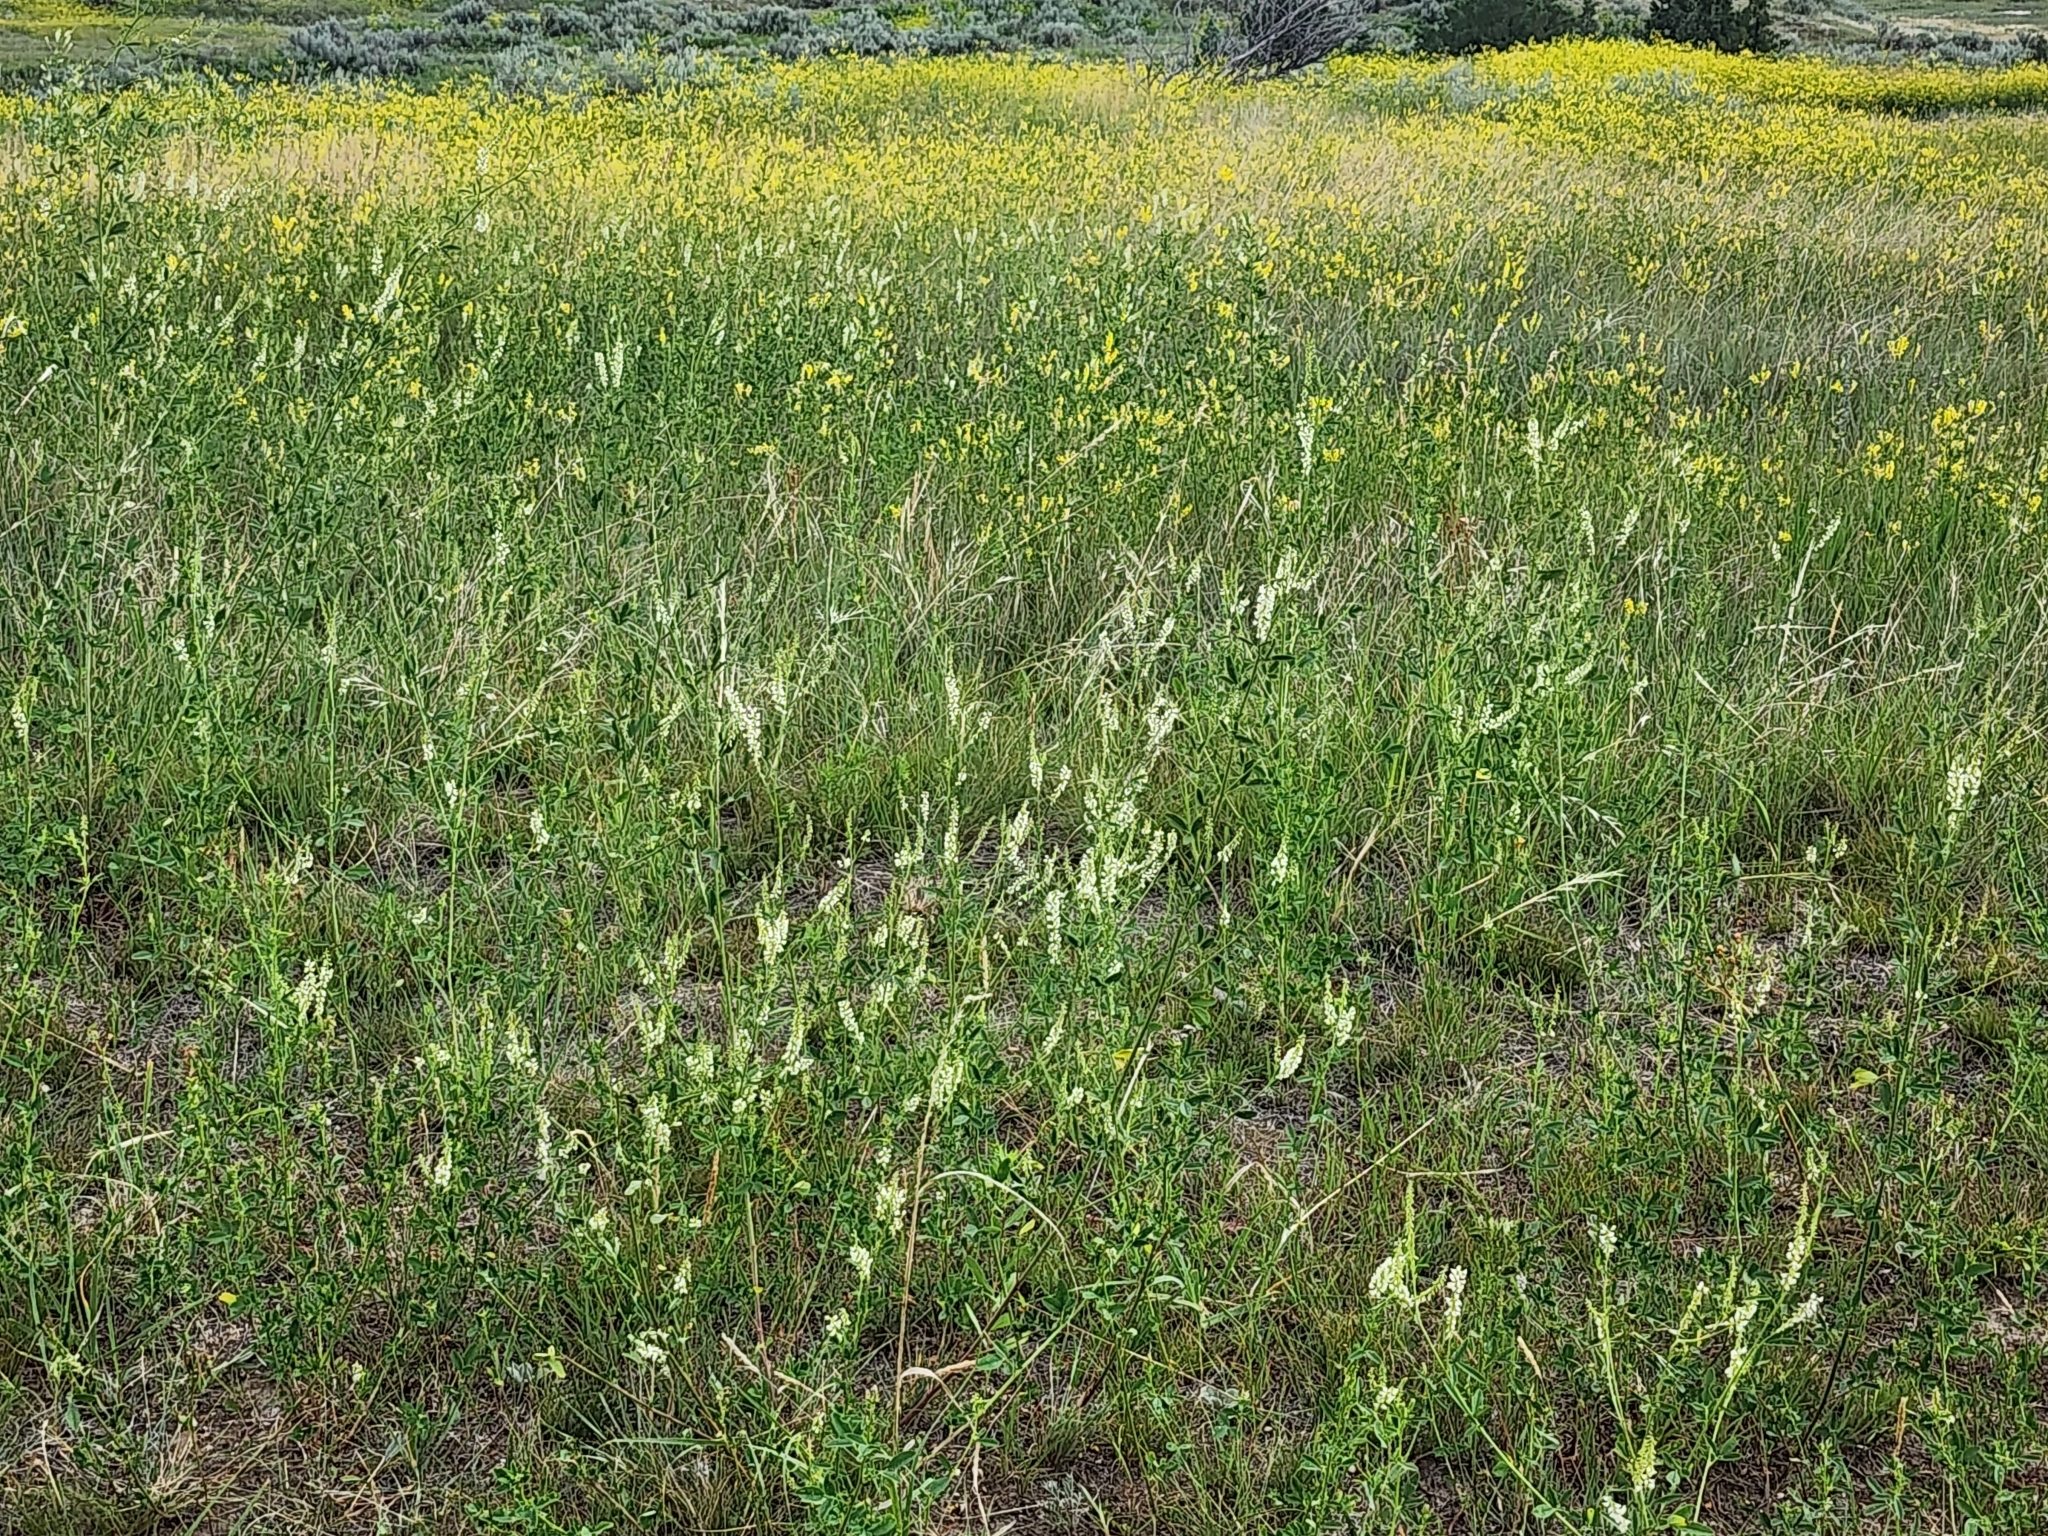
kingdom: Plantae
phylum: Tracheophyta
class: Magnoliopsida
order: Fabales
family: Fabaceae
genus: Melilotus
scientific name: Melilotus albus
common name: White melilot
